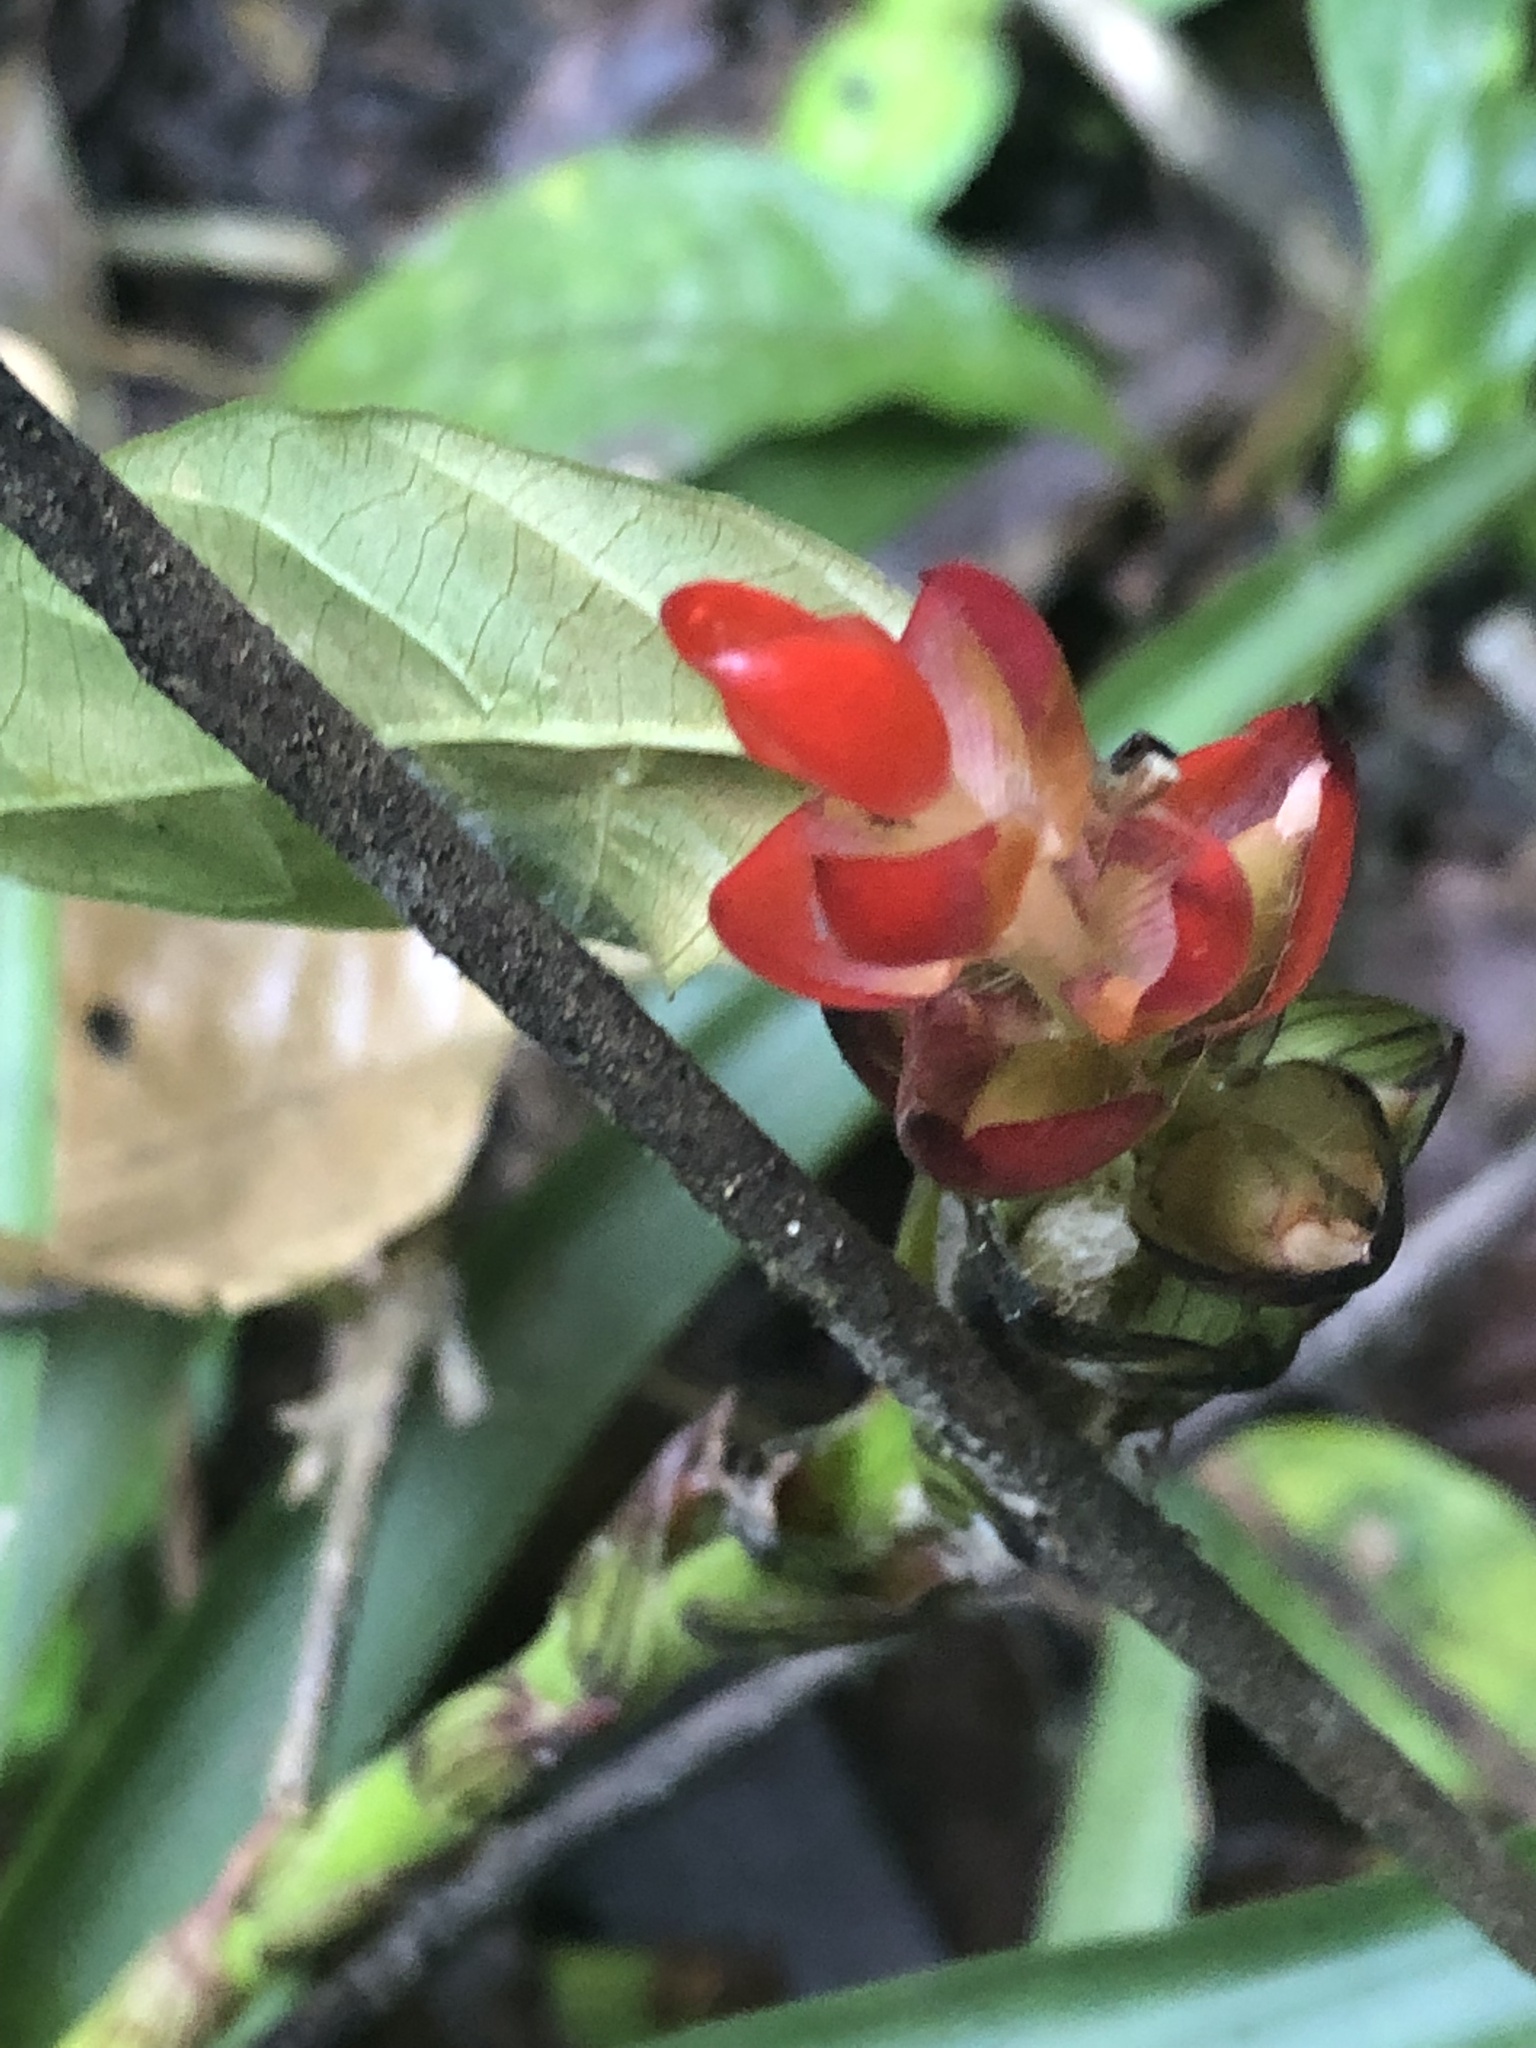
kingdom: Plantae
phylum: Tracheophyta
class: Liliopsida
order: Poales
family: Bromeliaceae
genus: Guzmania
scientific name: Guzmania monostachia
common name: West indian tufted airplant
